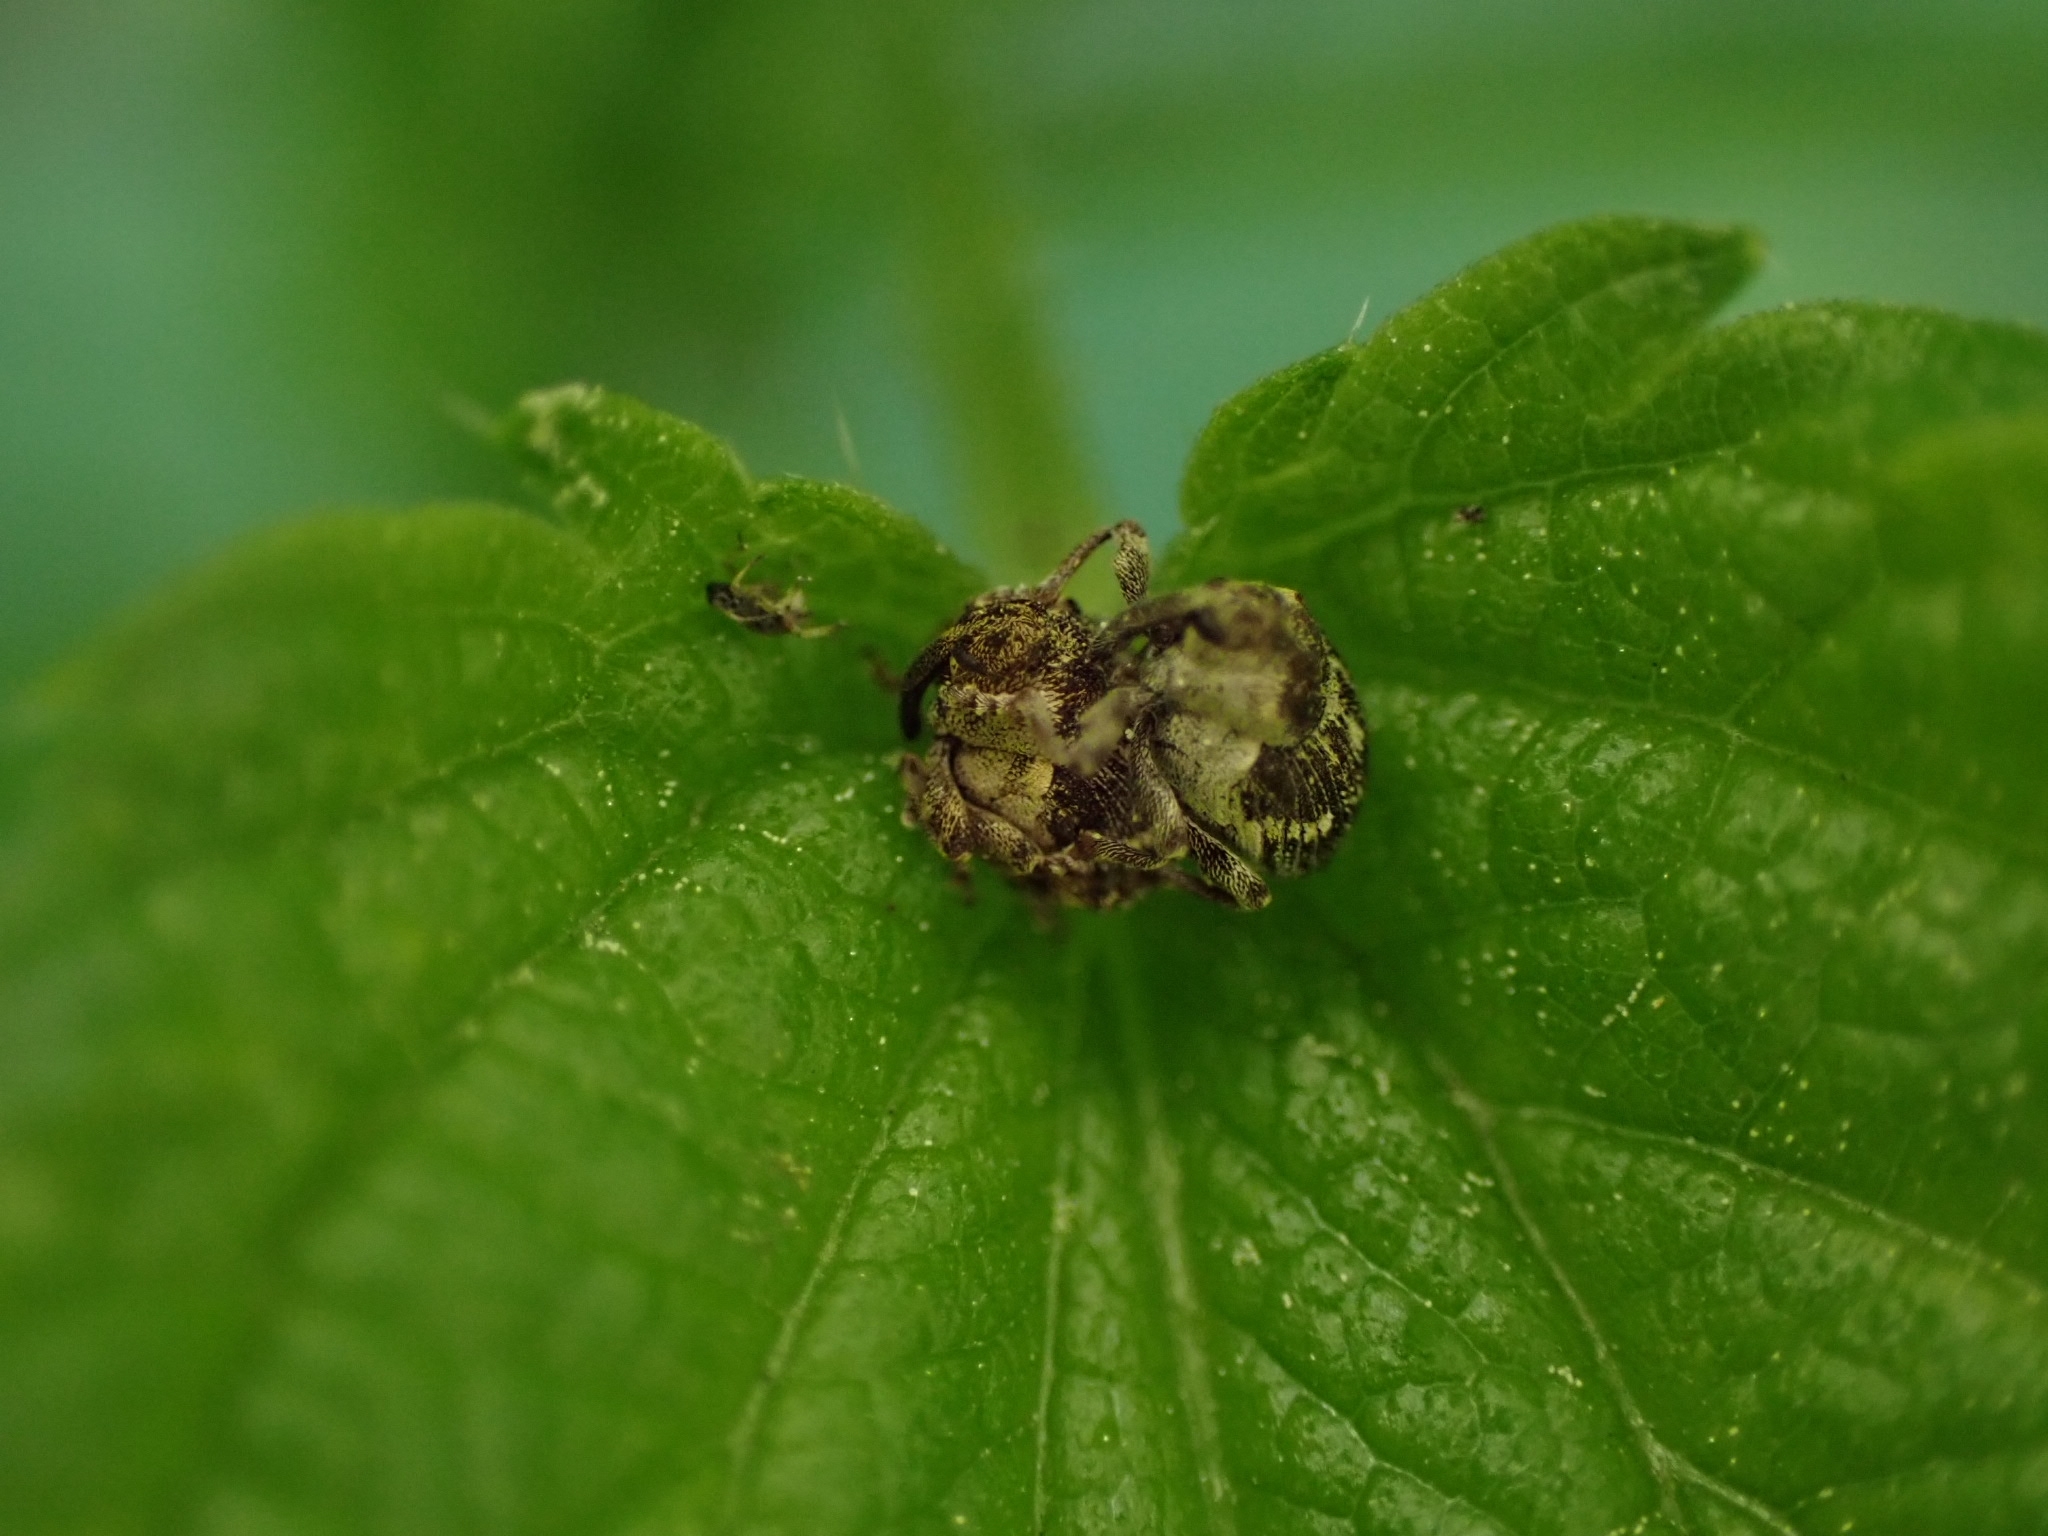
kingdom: Animalia
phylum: Arthropoda
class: Insecta
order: Coleoptera
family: Curculionidae
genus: Nedyus
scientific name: Nedyus quadrimaculatus
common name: Small nettle weevil
